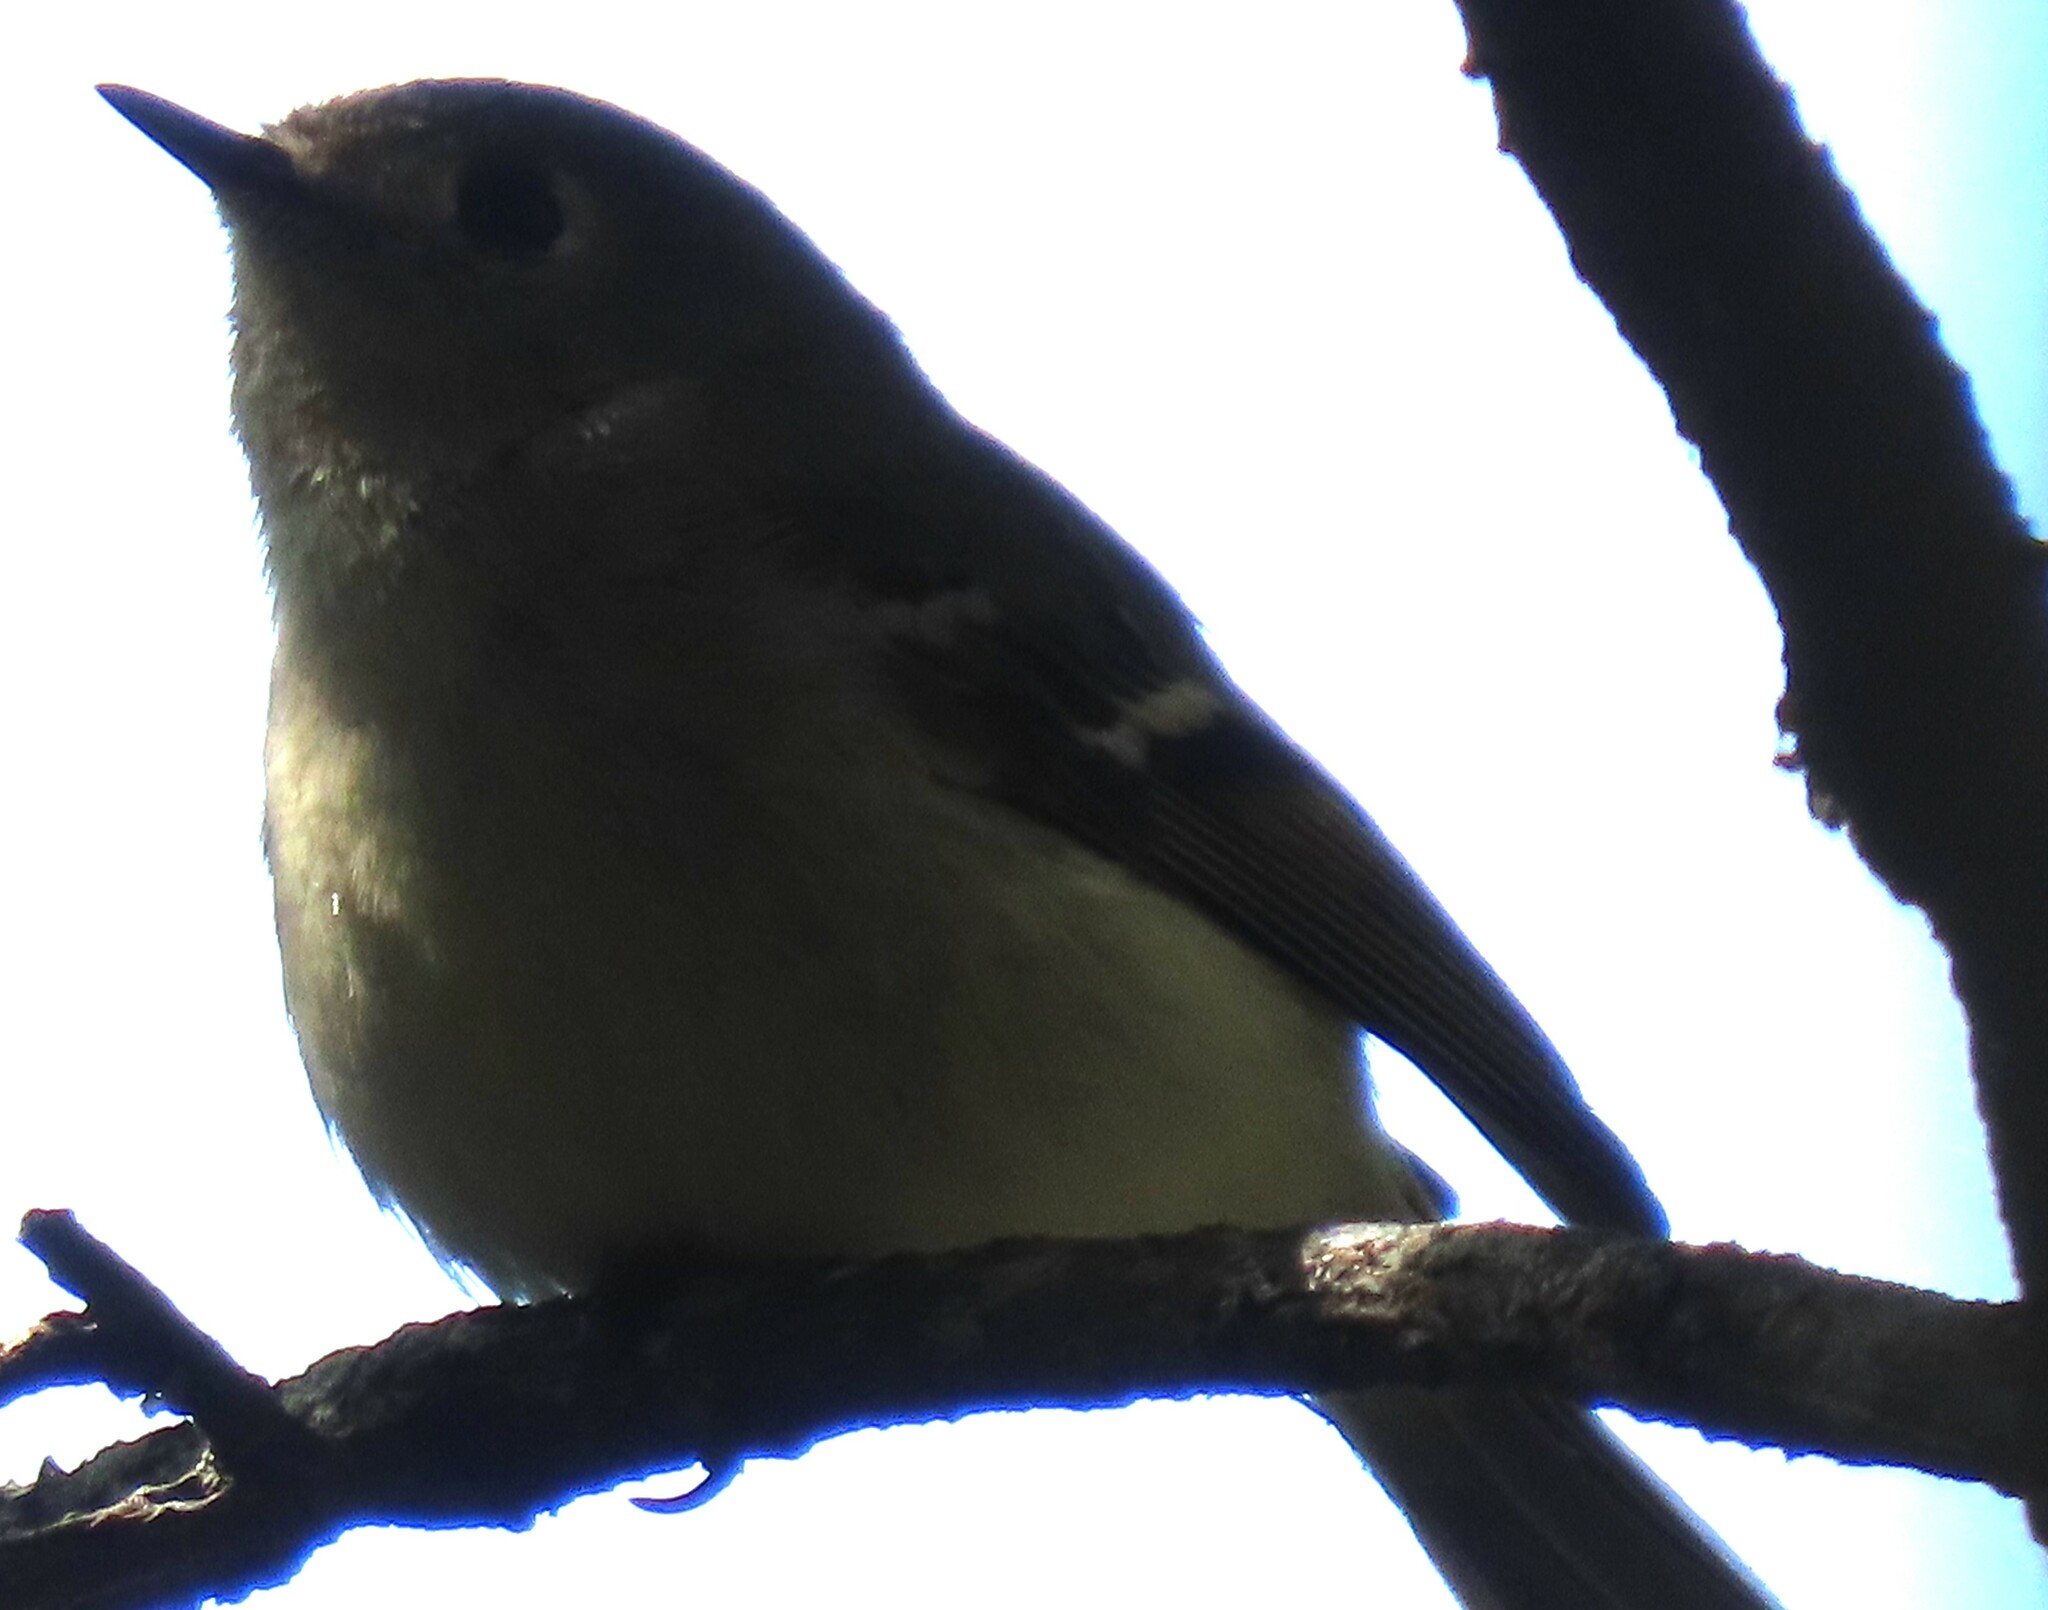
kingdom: Animalia
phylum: Chordata
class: Aves
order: Passeriformes
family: Regulidae
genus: Regulus
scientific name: Regulus calendula
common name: Ruby-crowned kinglet
